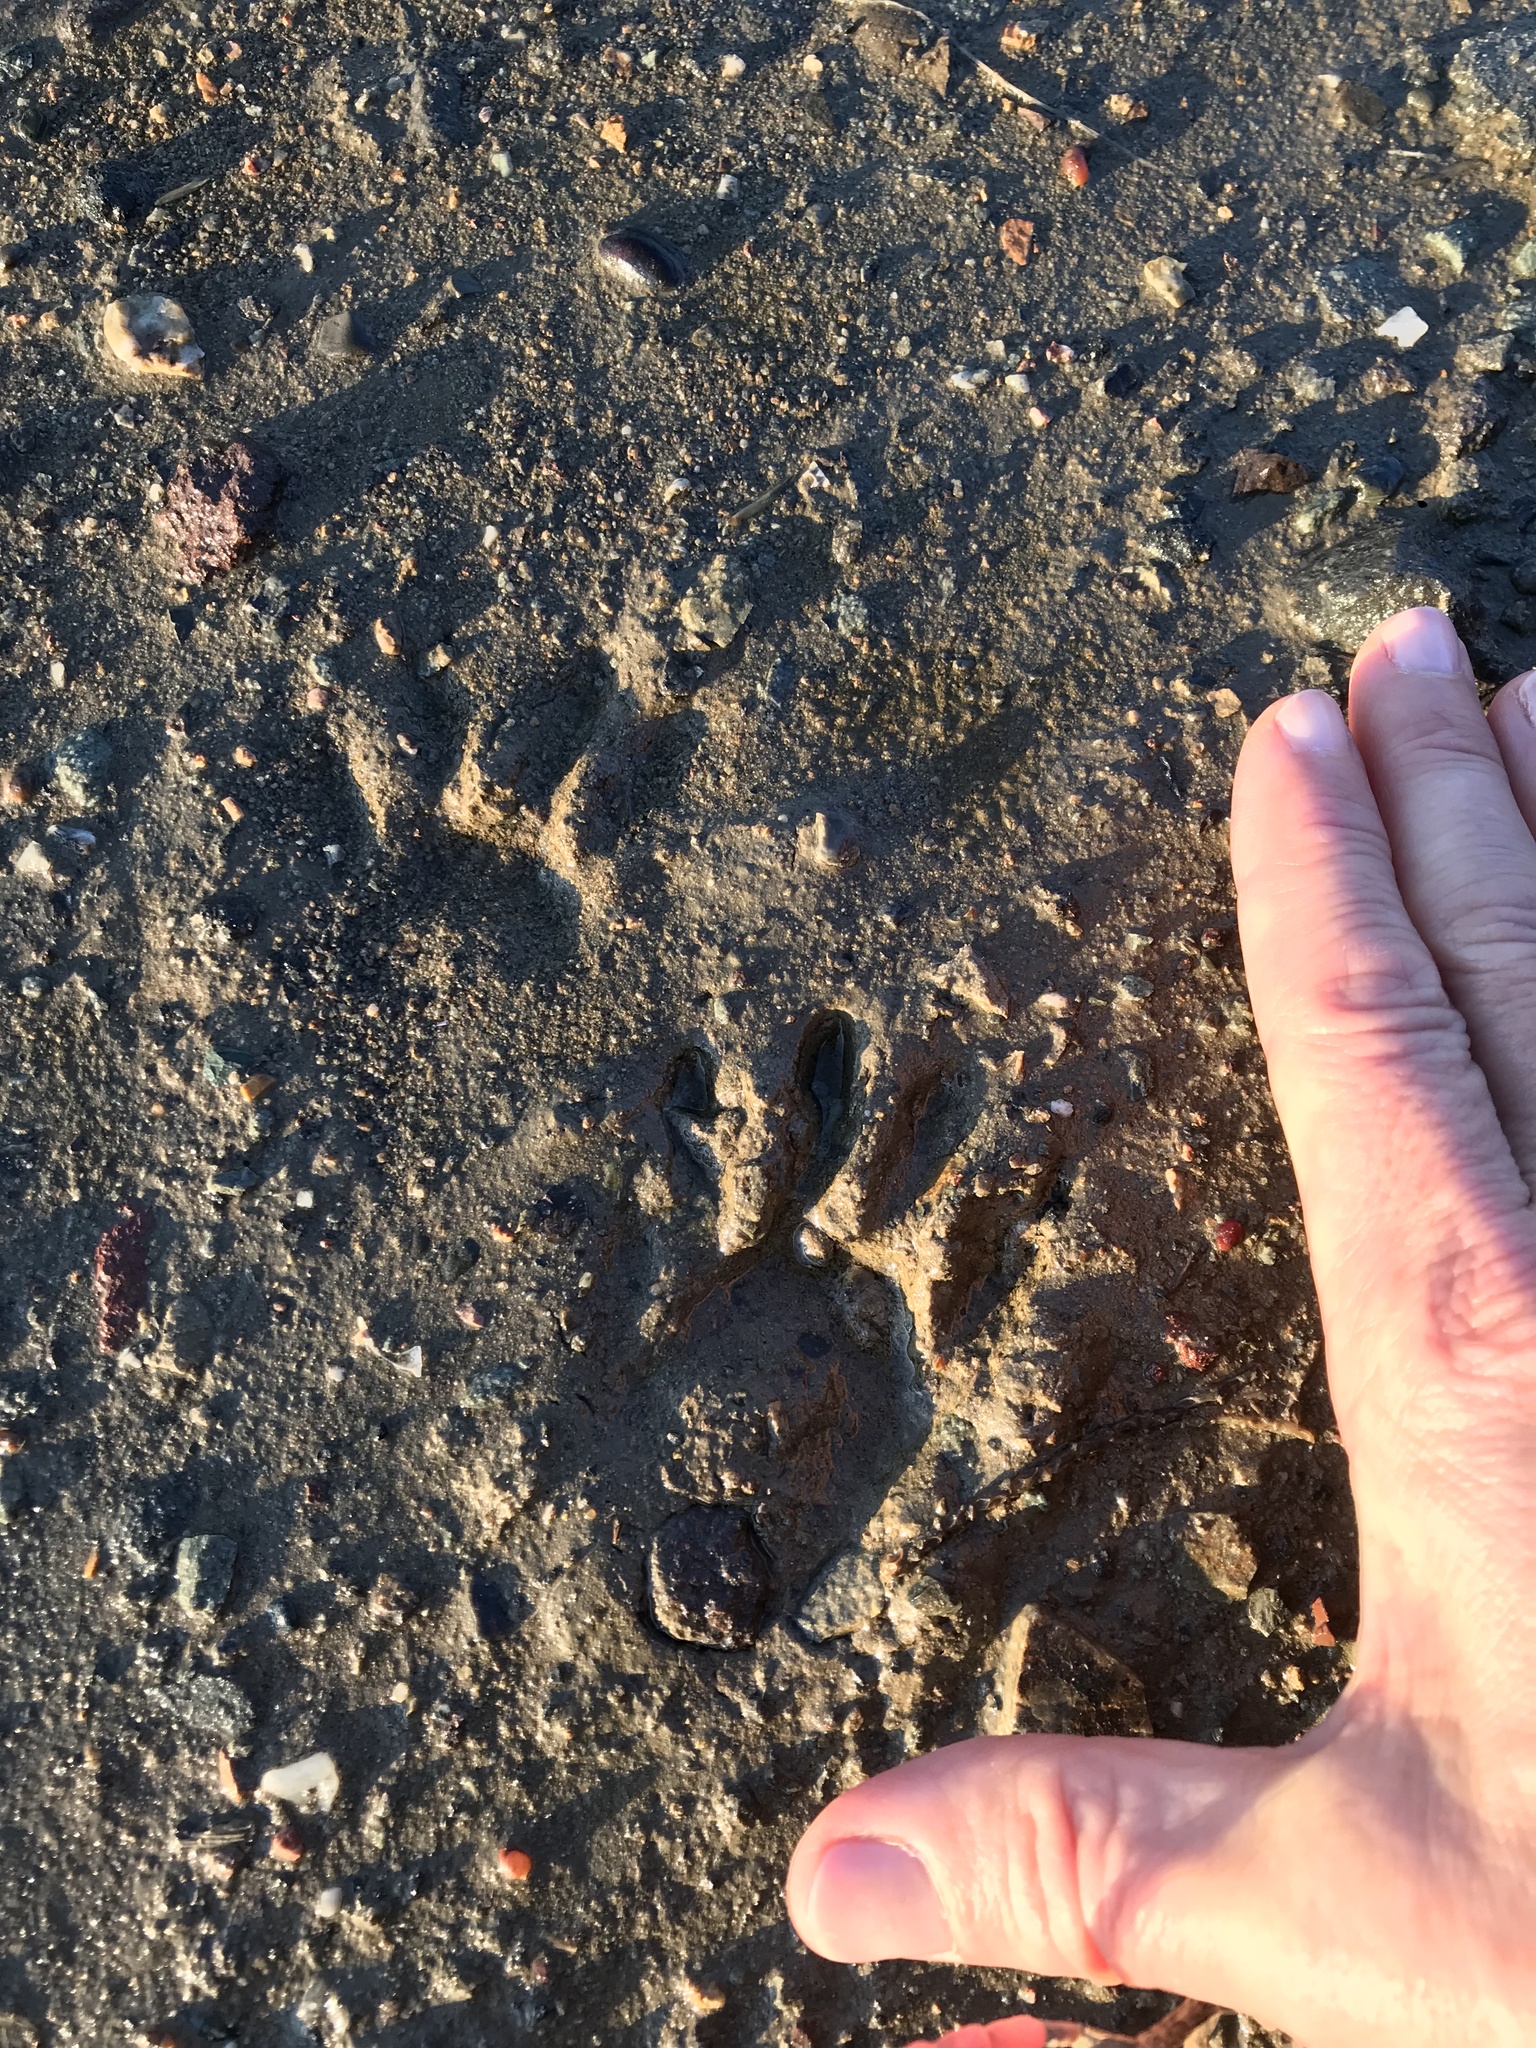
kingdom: Animalia
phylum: Chordata
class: Mammalia
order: Carnivora
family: Procyonidae
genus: Procyon
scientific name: Procyon lotor
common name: Raccoon
